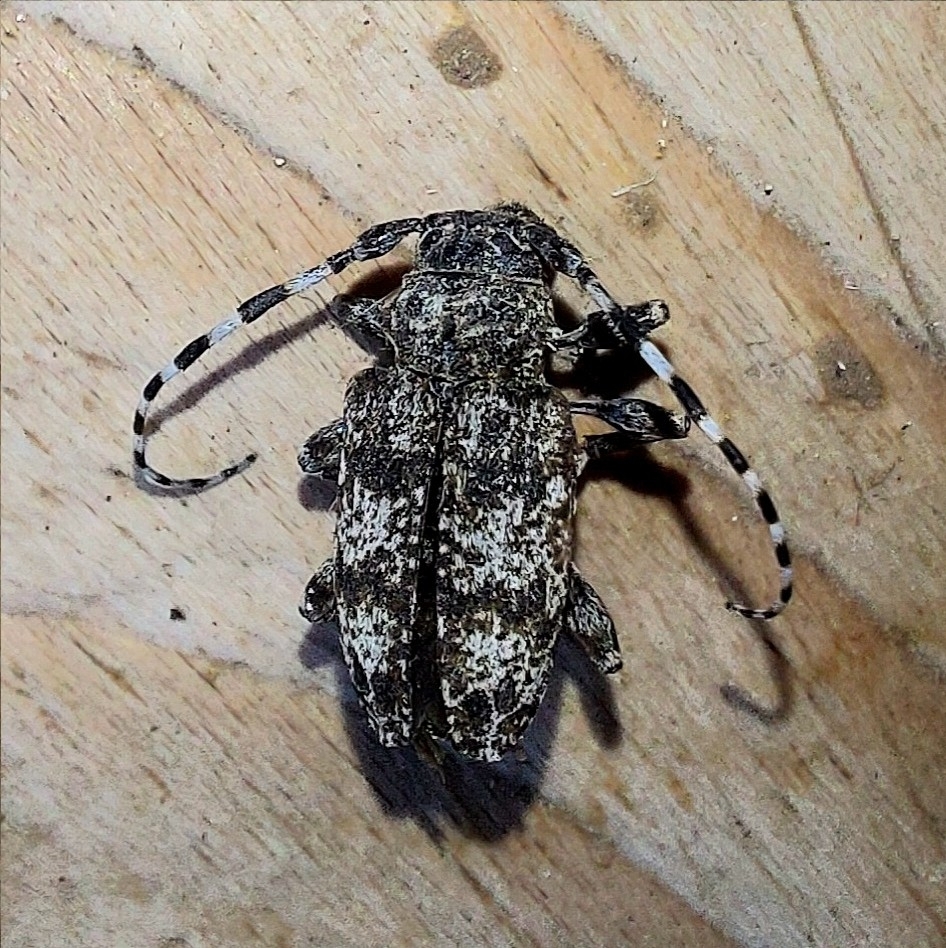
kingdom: Animalia
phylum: Arthropoda
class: Insecta
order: Coleoptera
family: Cerambycidae
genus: Aegomorphus
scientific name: Aegomorphus clavipes
